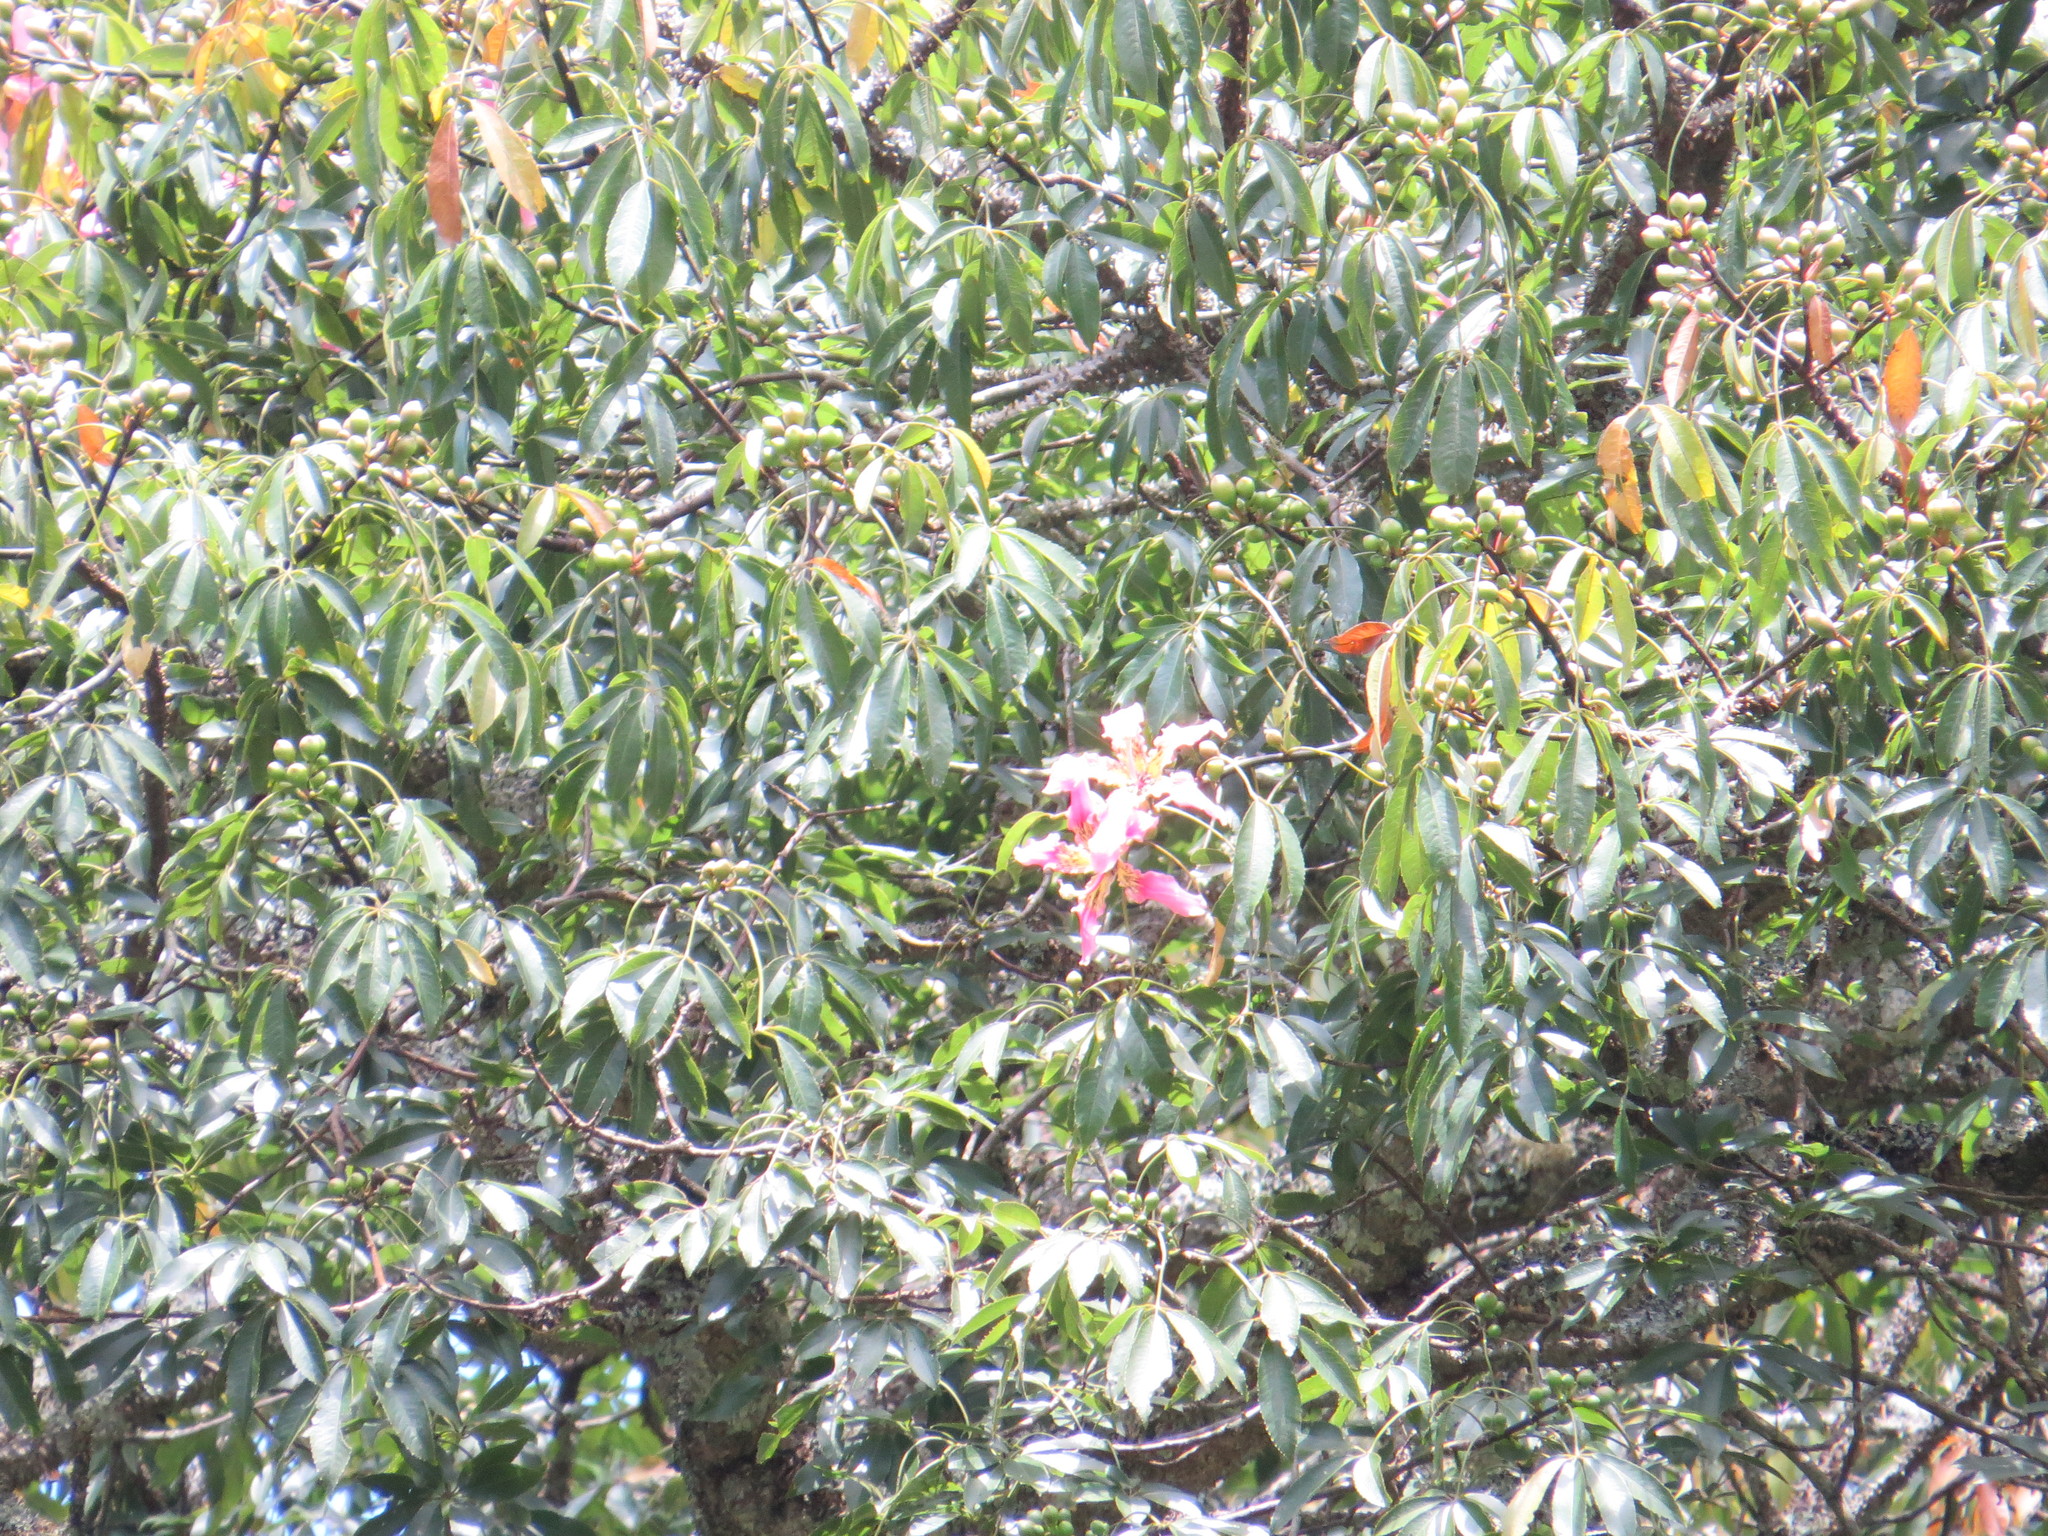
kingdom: Plantae
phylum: Tracheophyta
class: Magnoliopsida
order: Malvales
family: Malvaceae
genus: Ceiba
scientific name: Ceiba speciosa
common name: Silk-floss tree
